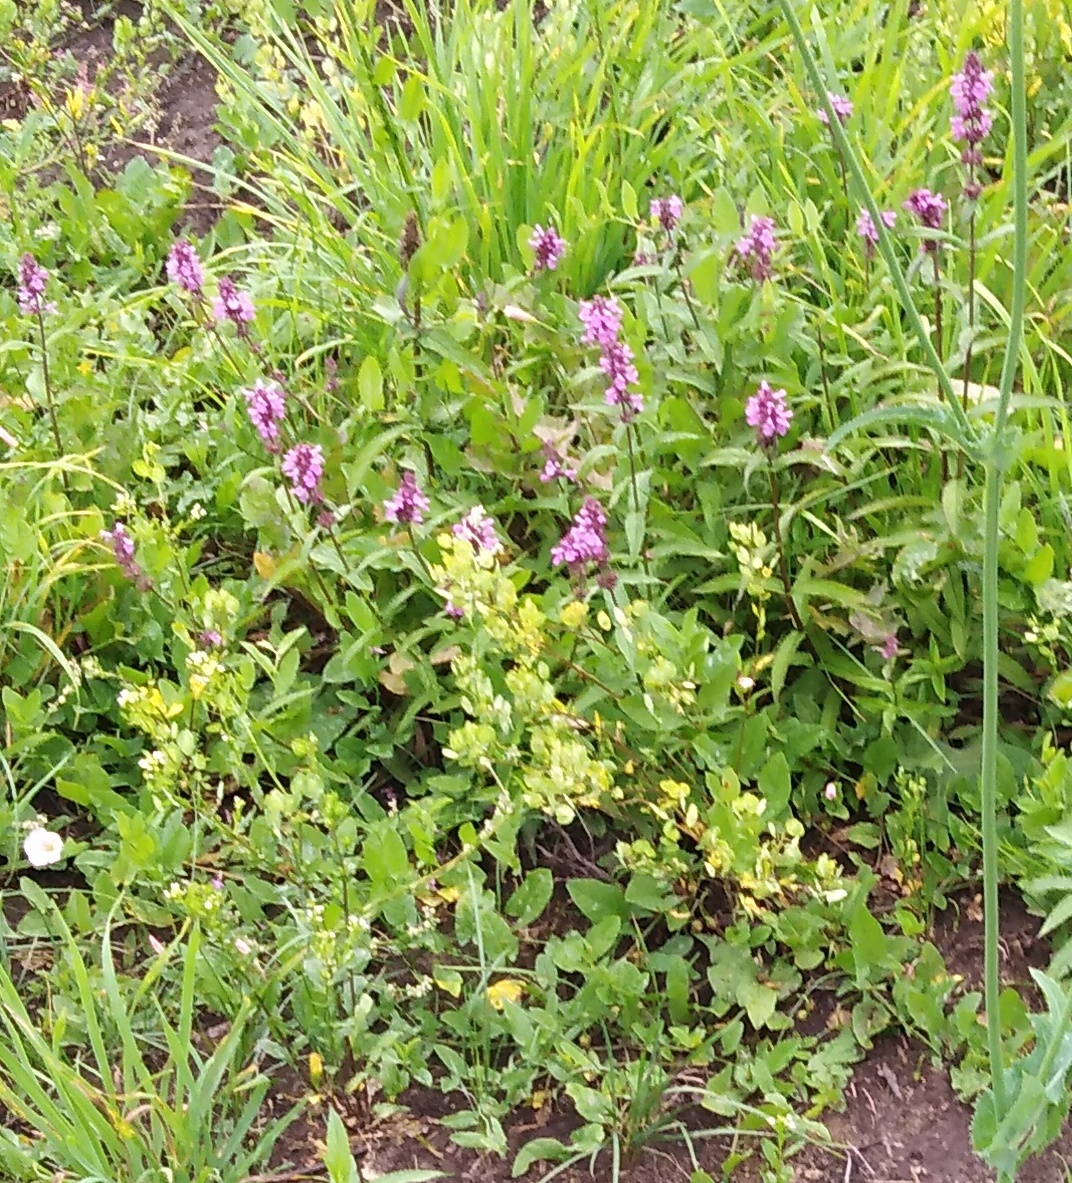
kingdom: Plantae
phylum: Tracheophyta
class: Magnoliopsida
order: Lamiales
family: Lamiaceae
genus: Stachys
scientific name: Stachys palustris
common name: Marsh woundwort
